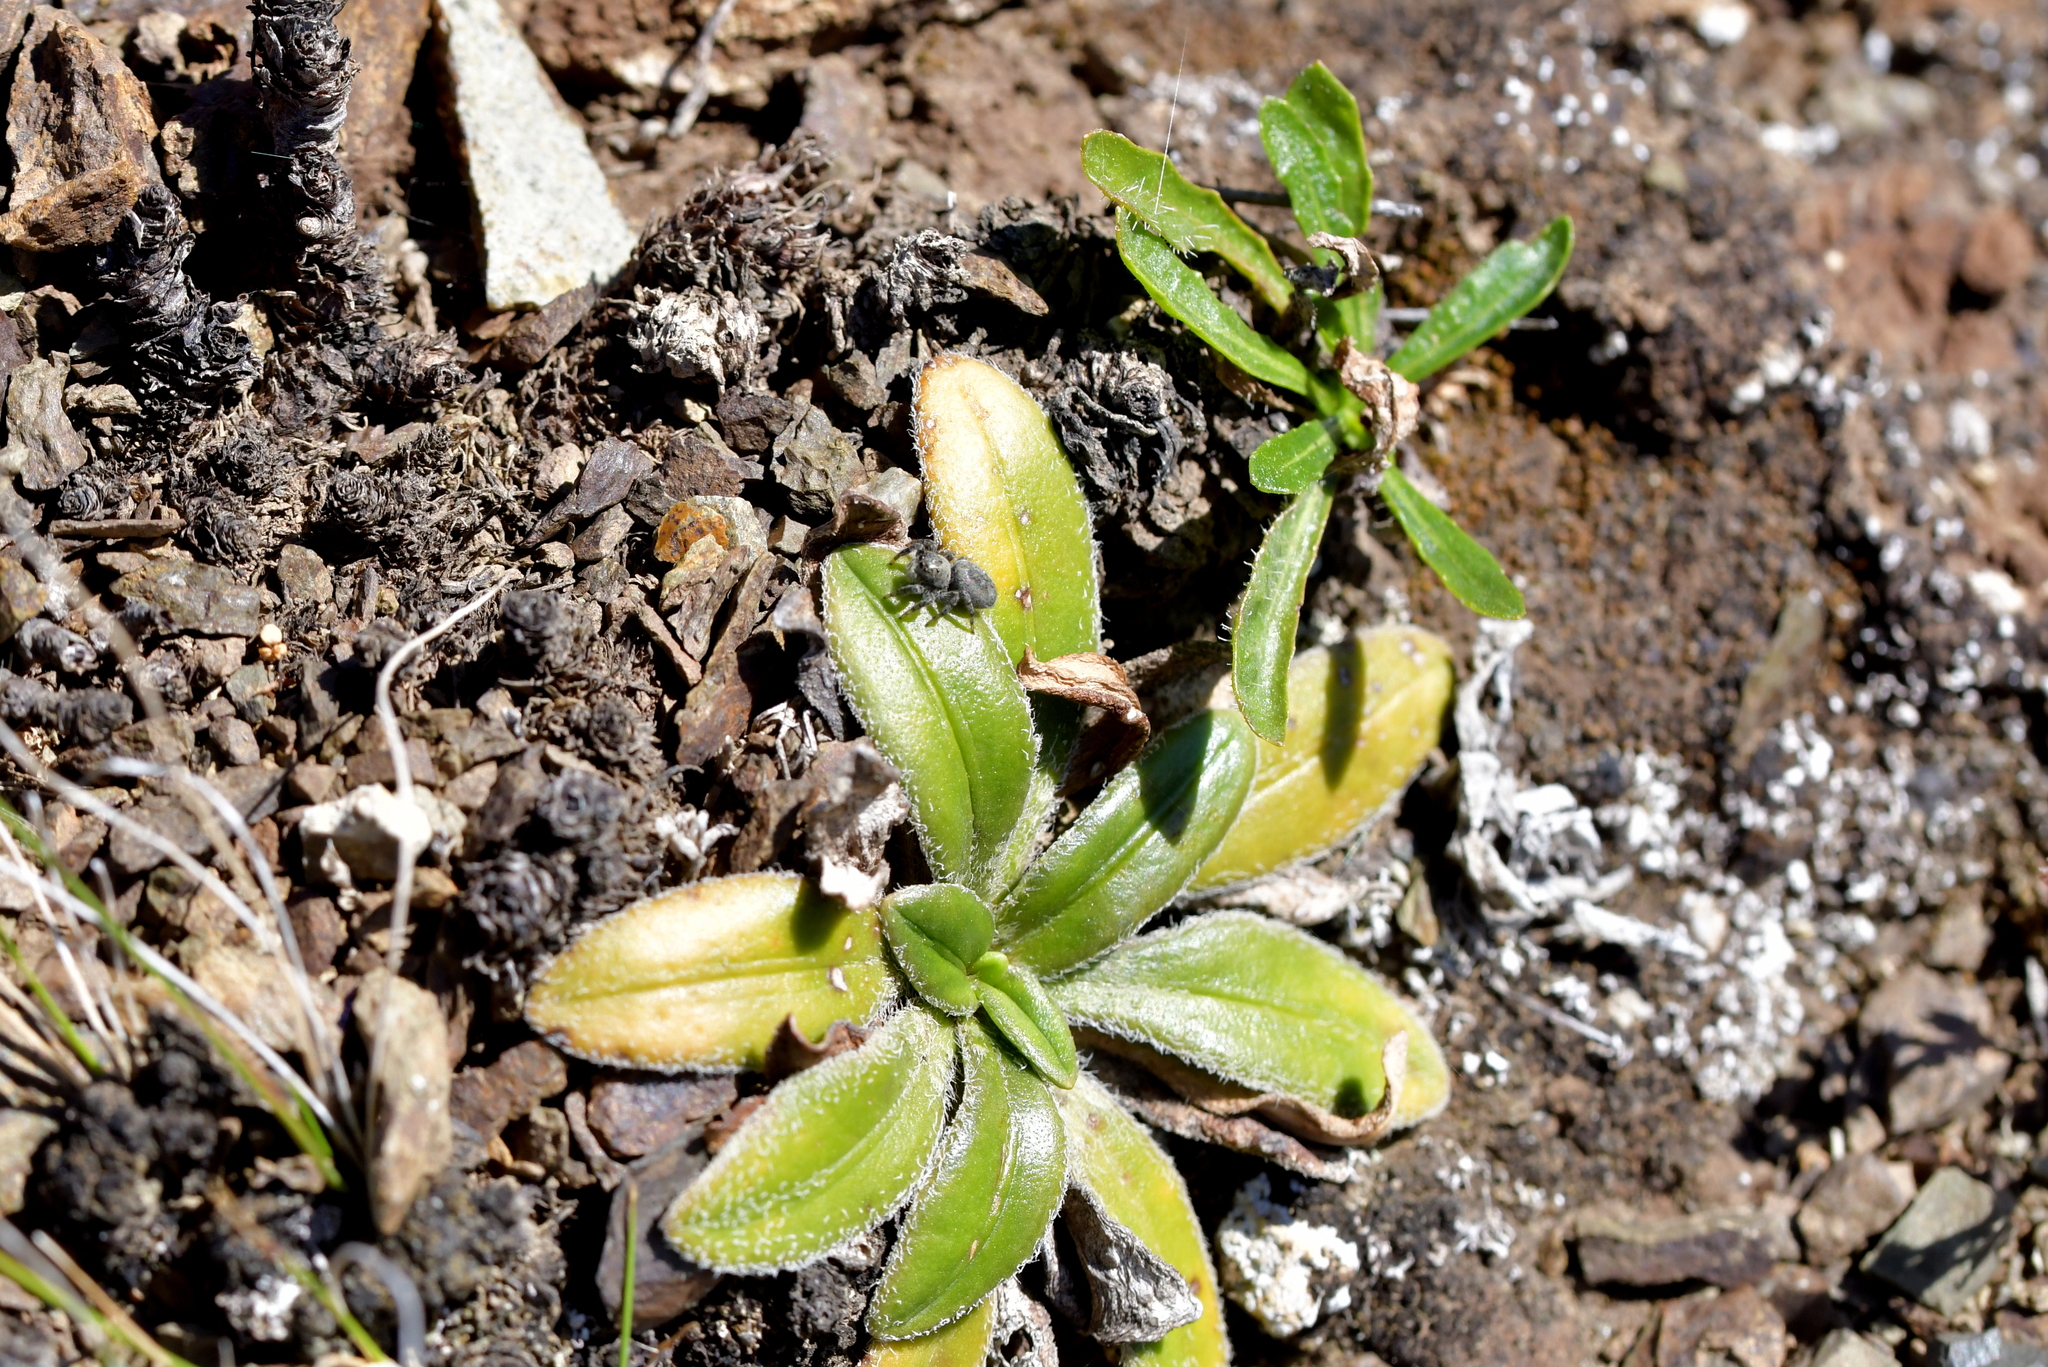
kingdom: Plantae
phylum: Tracheophyta
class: Magnoliopsida
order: Lamiales
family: Plantaginaceae
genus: Plantago
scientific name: Plantago spathulata
